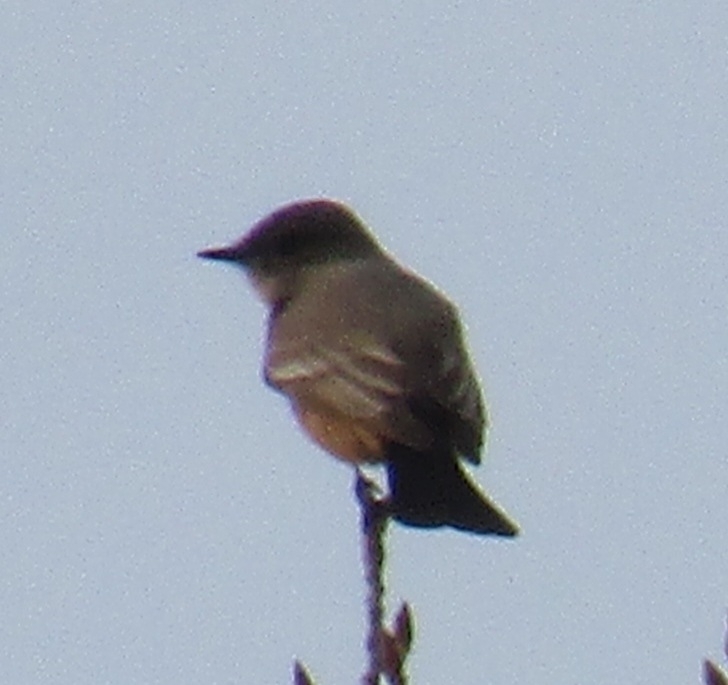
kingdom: Animalia
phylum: Chordata
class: Aves
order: Passeriformes
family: Tyrannidae
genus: Sayornis
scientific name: Sayornis saya
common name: Say's phoebe
